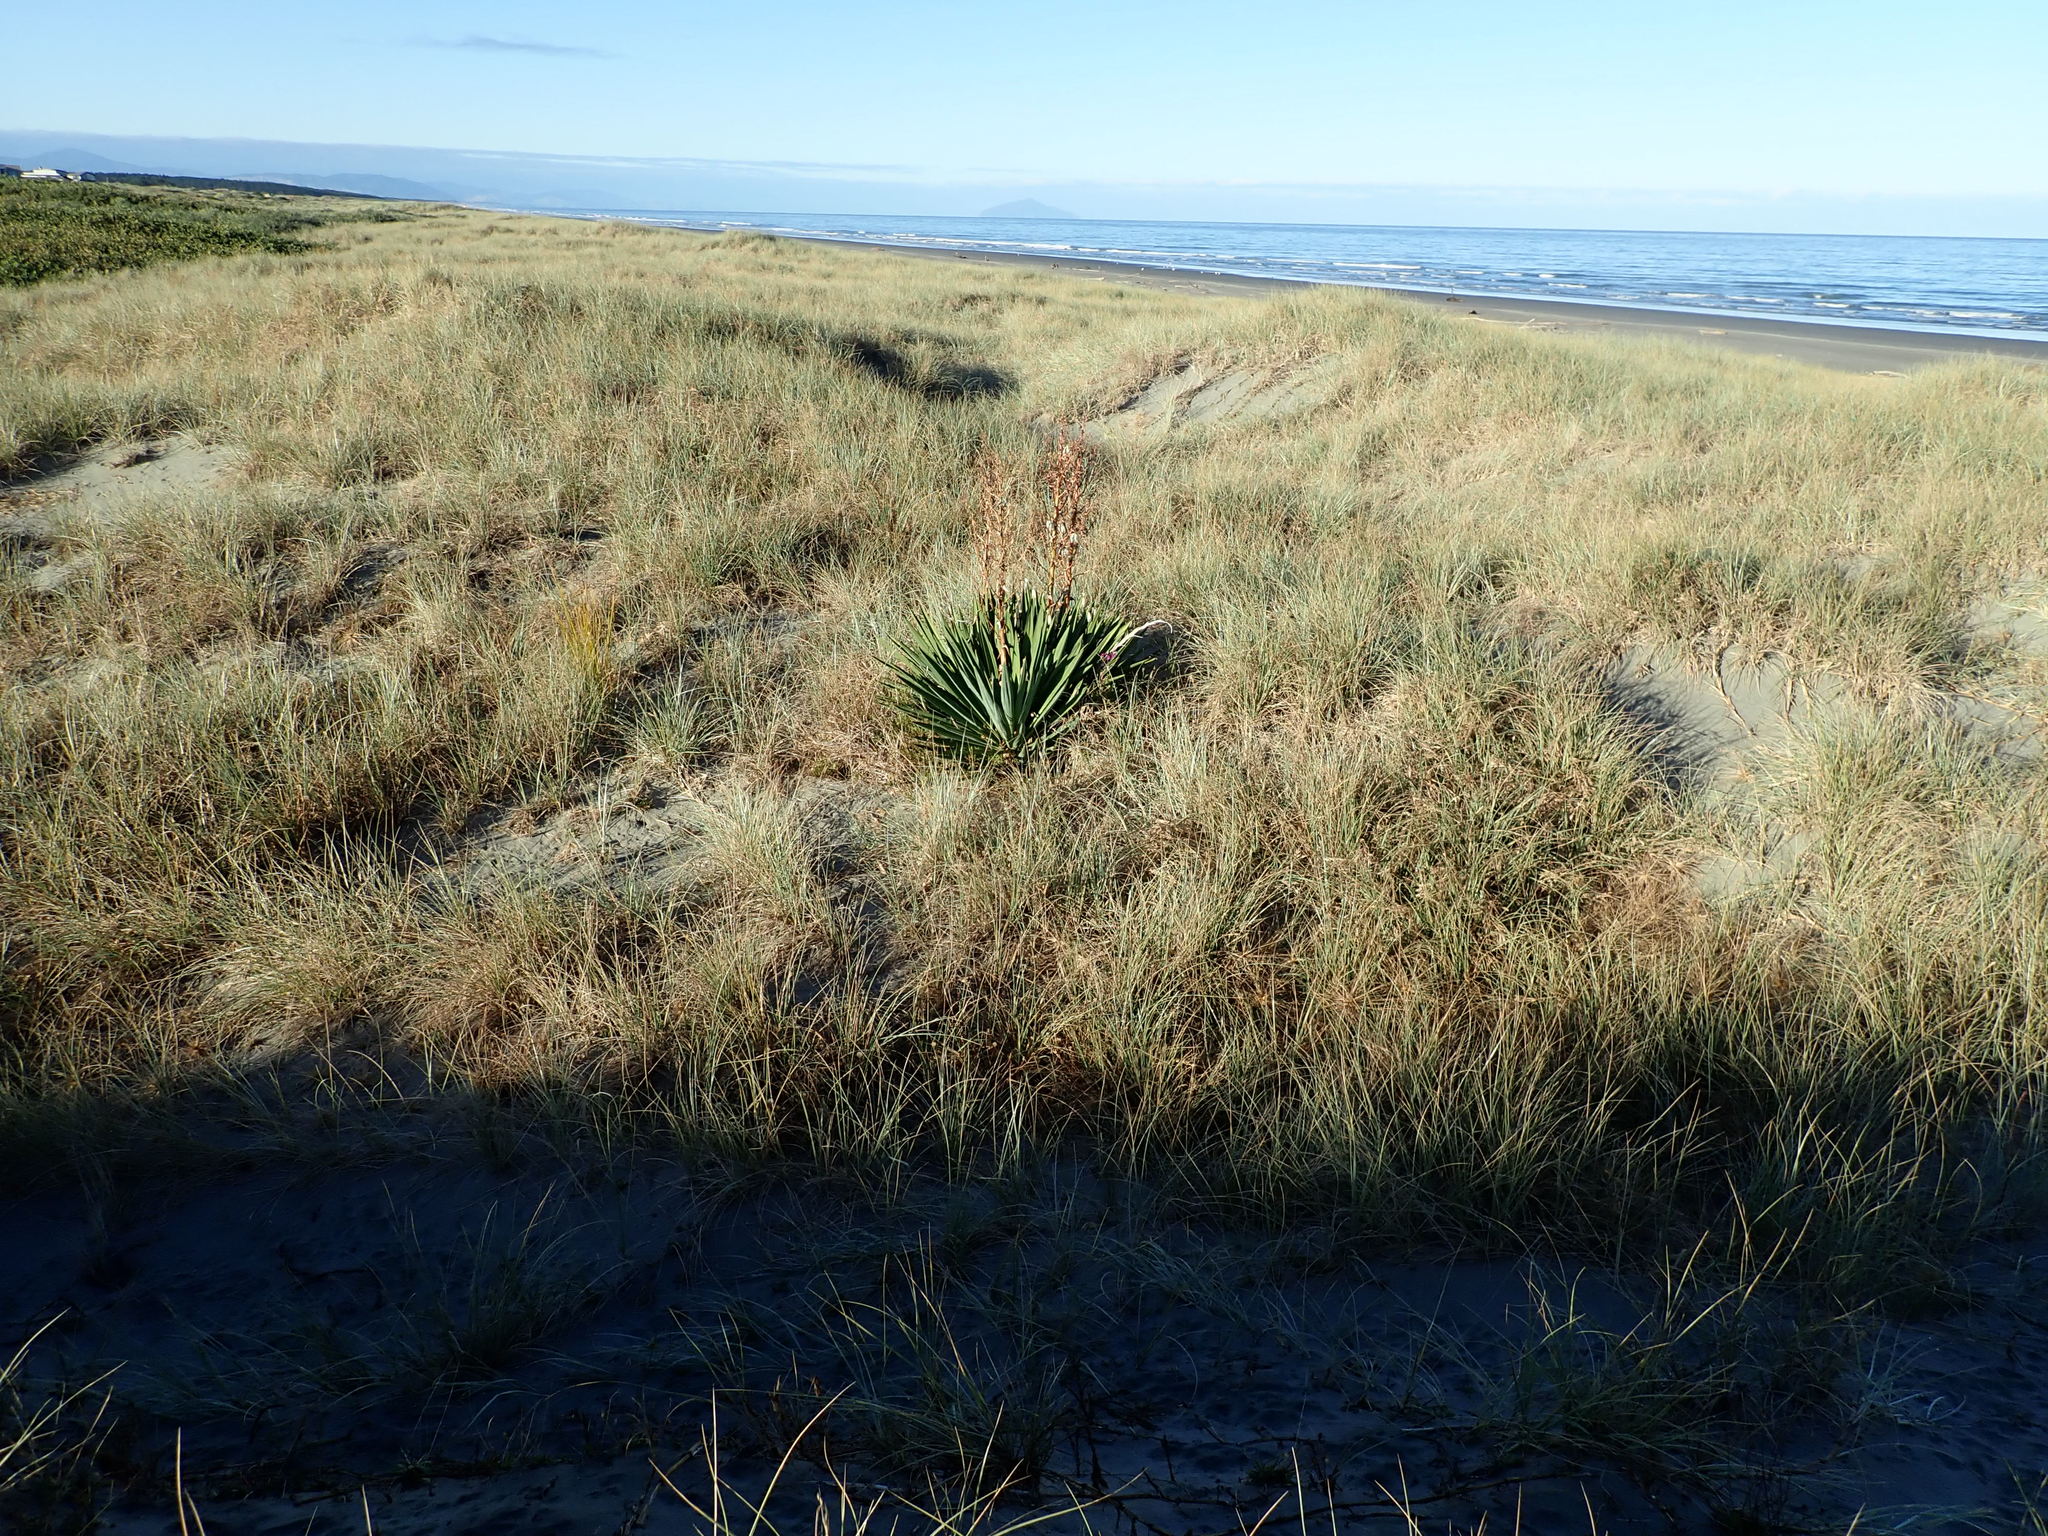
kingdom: Plantae
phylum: Tracheophyta
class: Magnoliopsida
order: Asterales
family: Asteraceae
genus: Senecio
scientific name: Senecio elegans
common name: Purple groundsel
